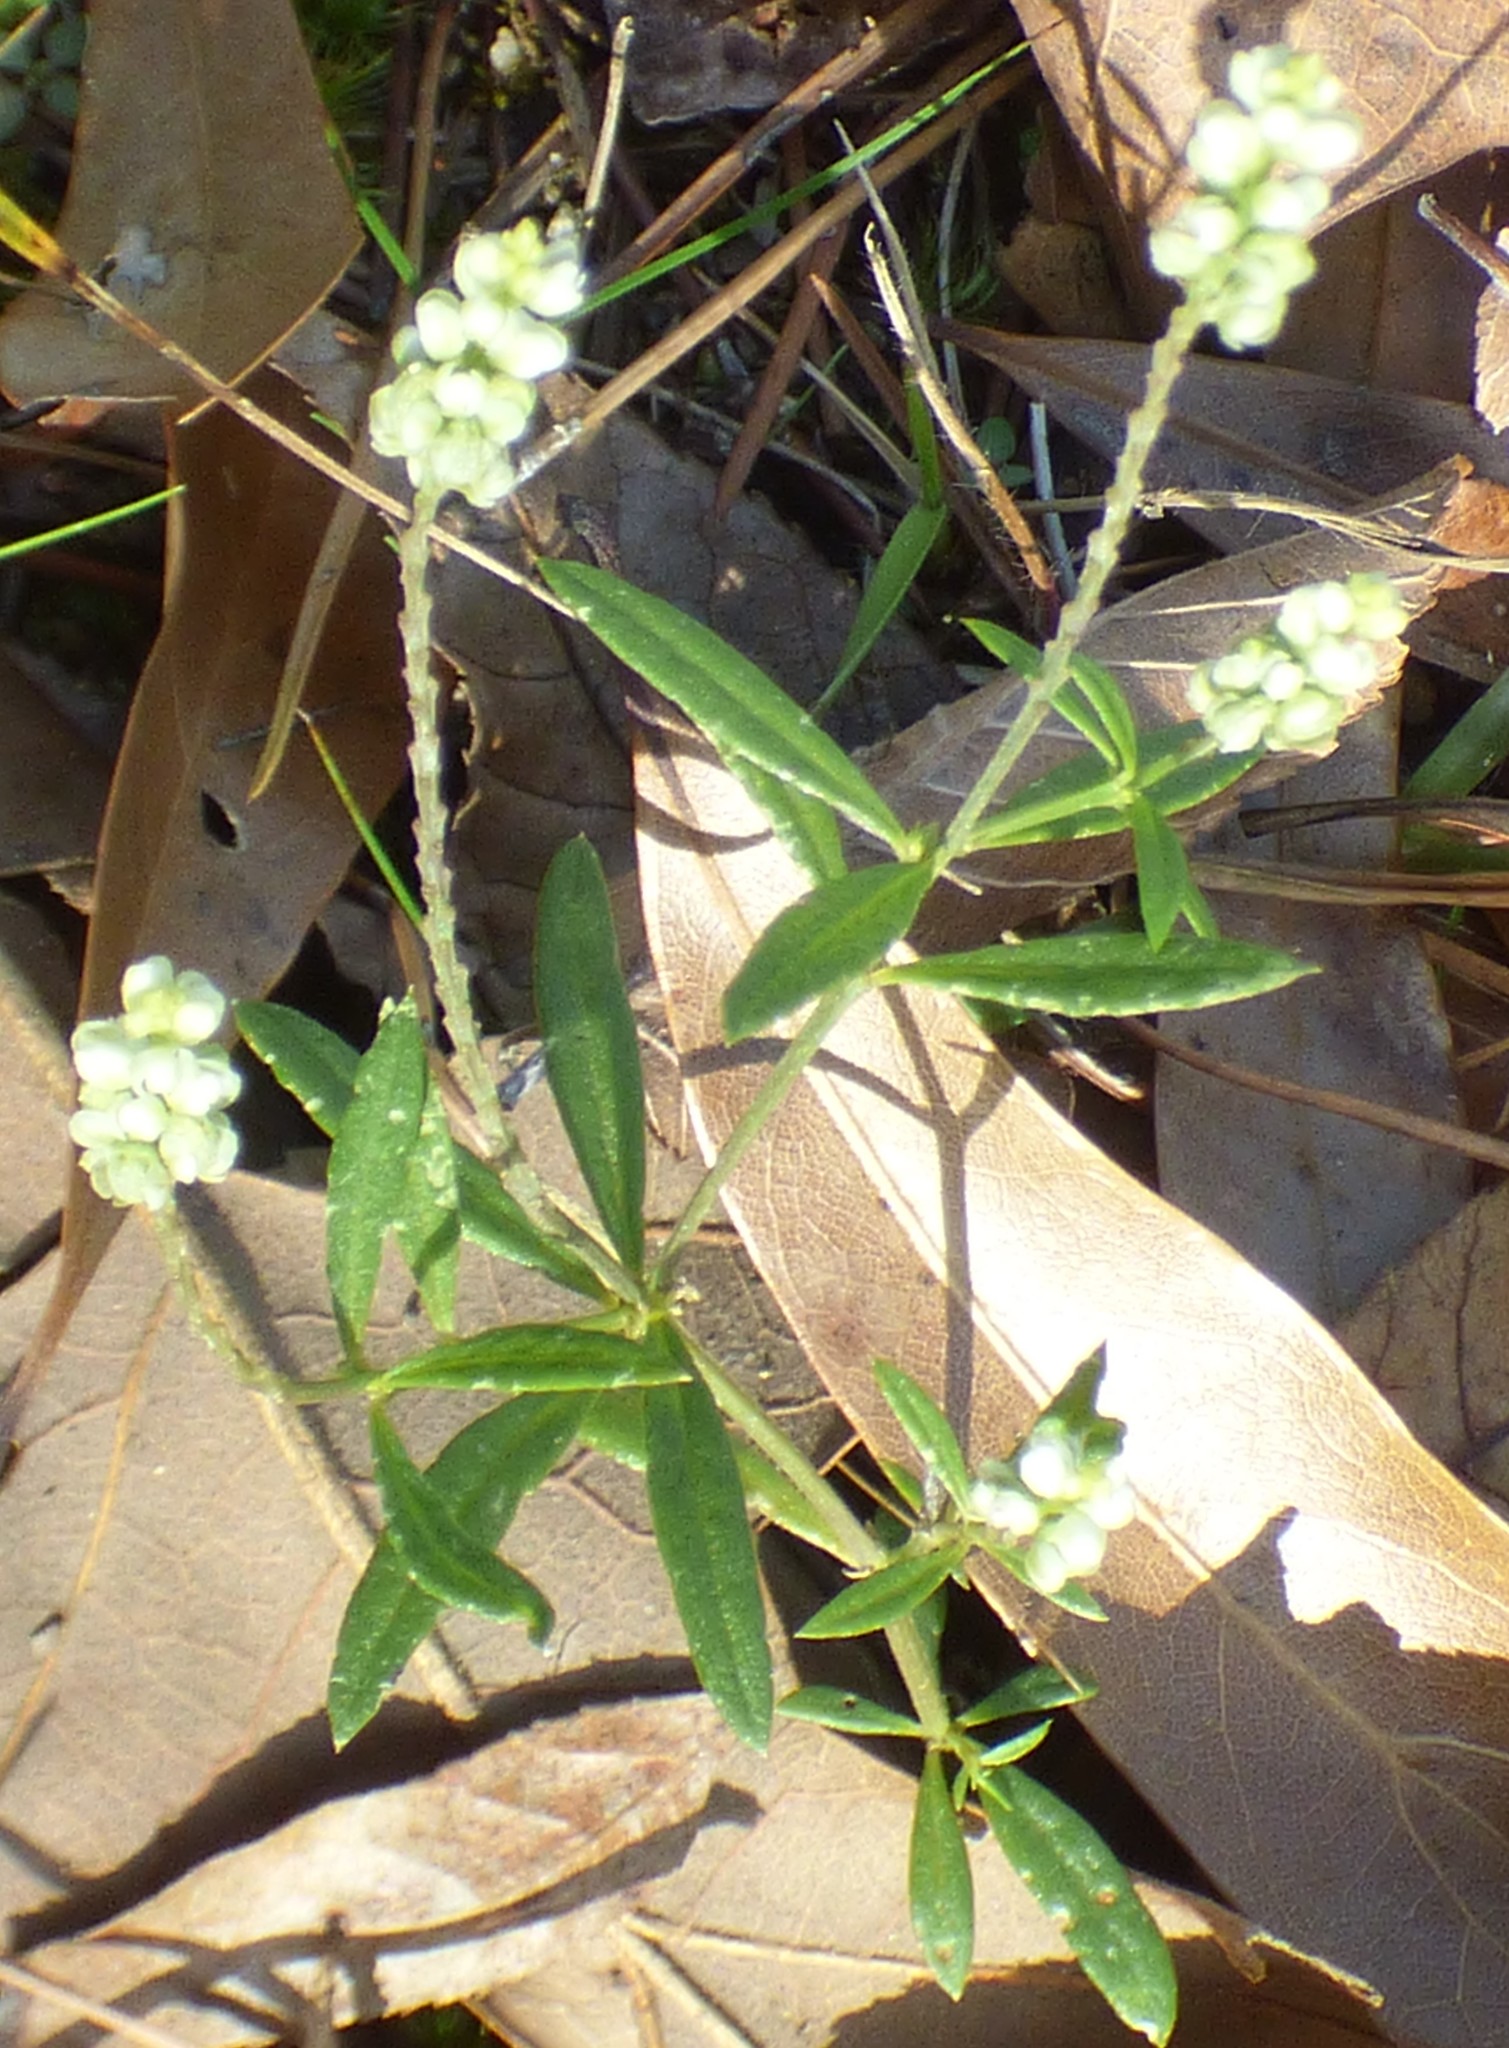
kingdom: Plantae
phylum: Tracheophyta
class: Magnoliopsida
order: Fabales
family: Polygalaceae
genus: Polygala
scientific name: Polygala verticillata
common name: Whorl milkwort
